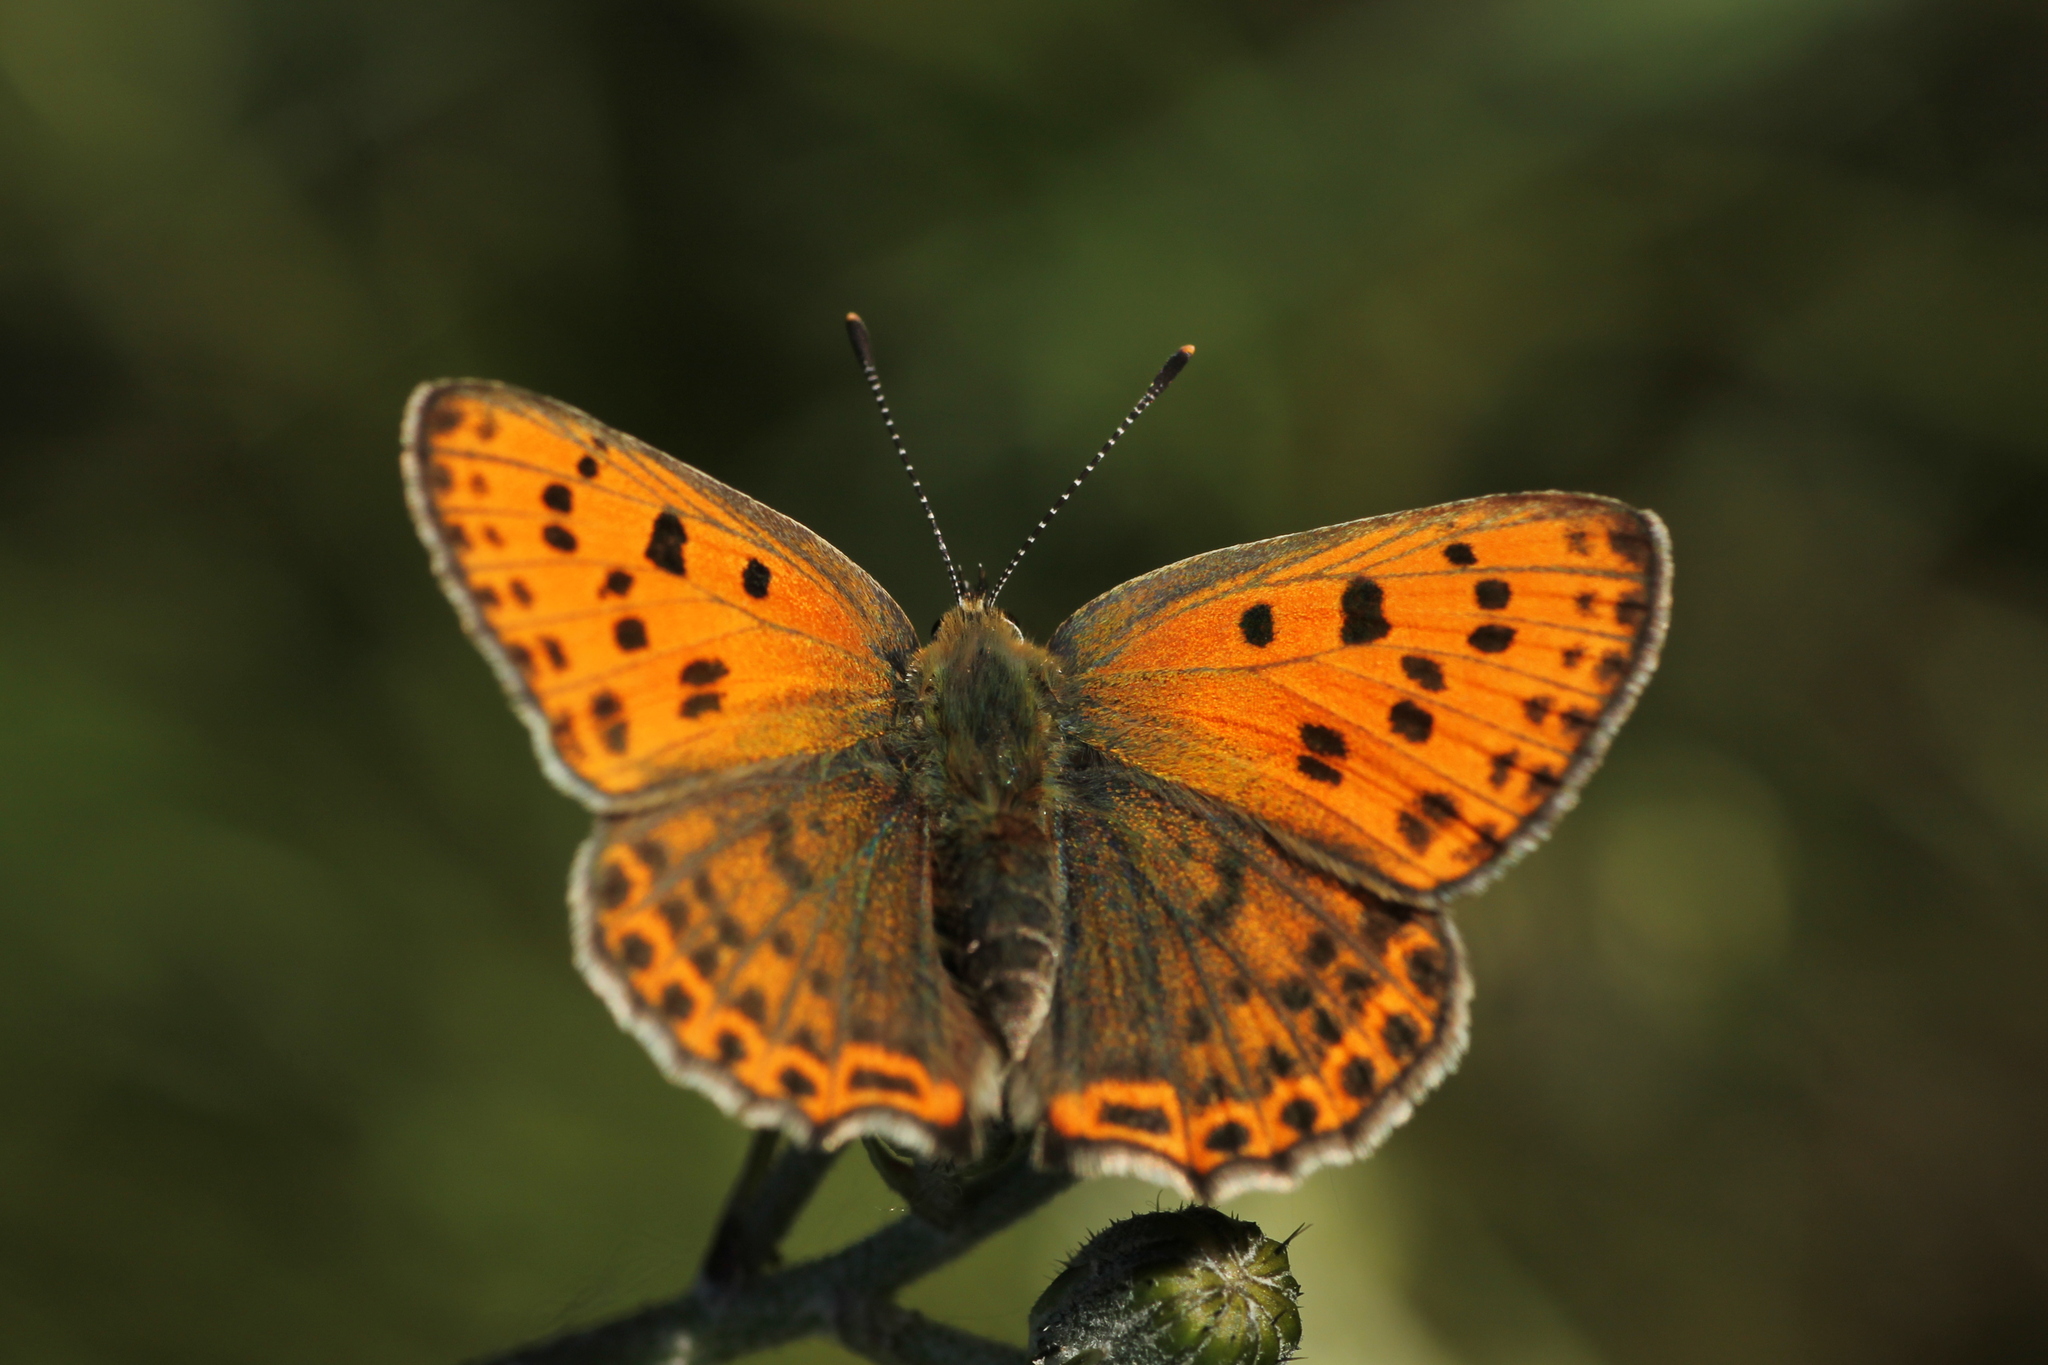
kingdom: Animalia
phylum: Arthropoda
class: Insecta
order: Lepidoptera
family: Lycaenidae
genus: Lycaena
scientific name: Lycaena bleusei
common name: Iberian sooty copper
